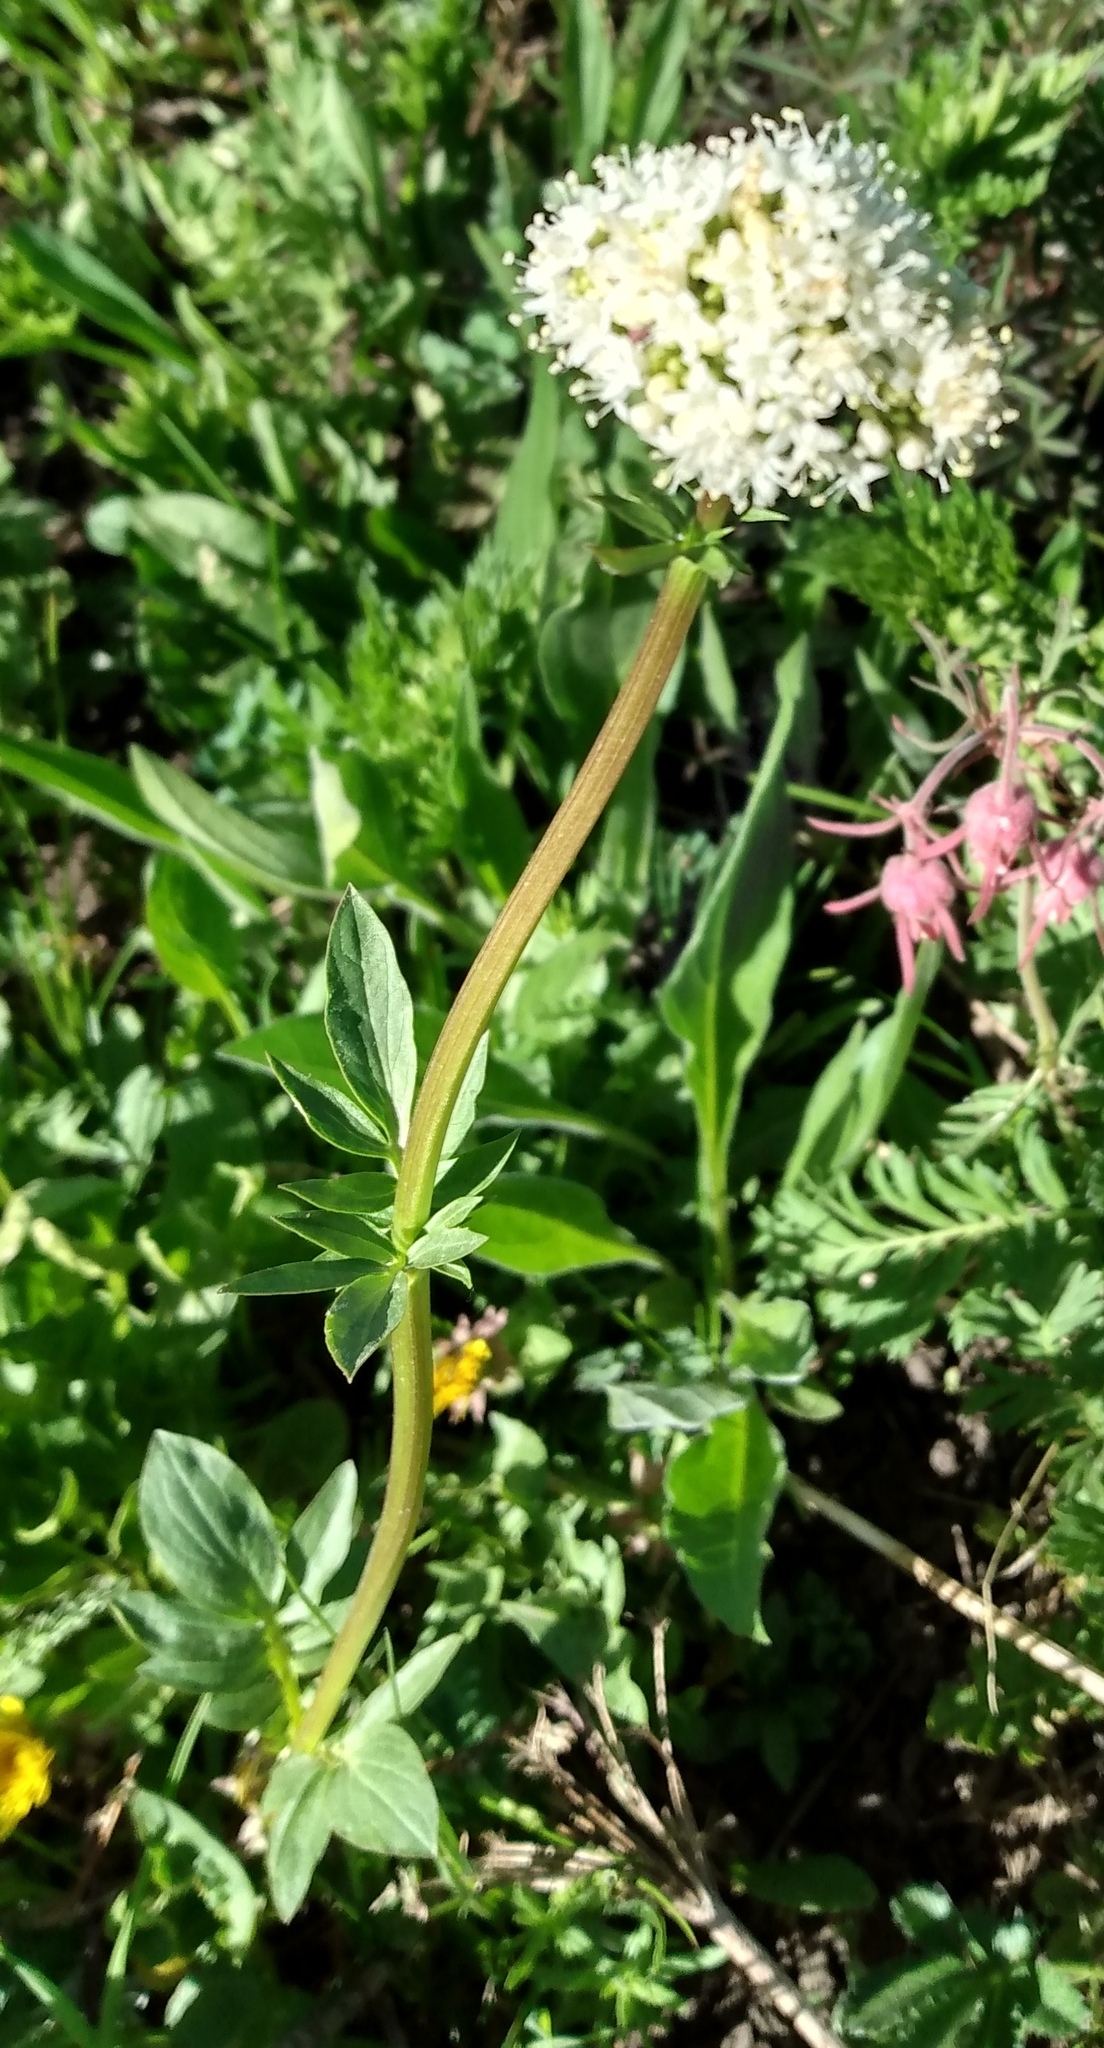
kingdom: Plantae
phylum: Tracheophyta
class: Magnoliopsida
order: Dipsacales
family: Caprifoliaceae
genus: Valeriana
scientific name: Valeriana occidentalis
